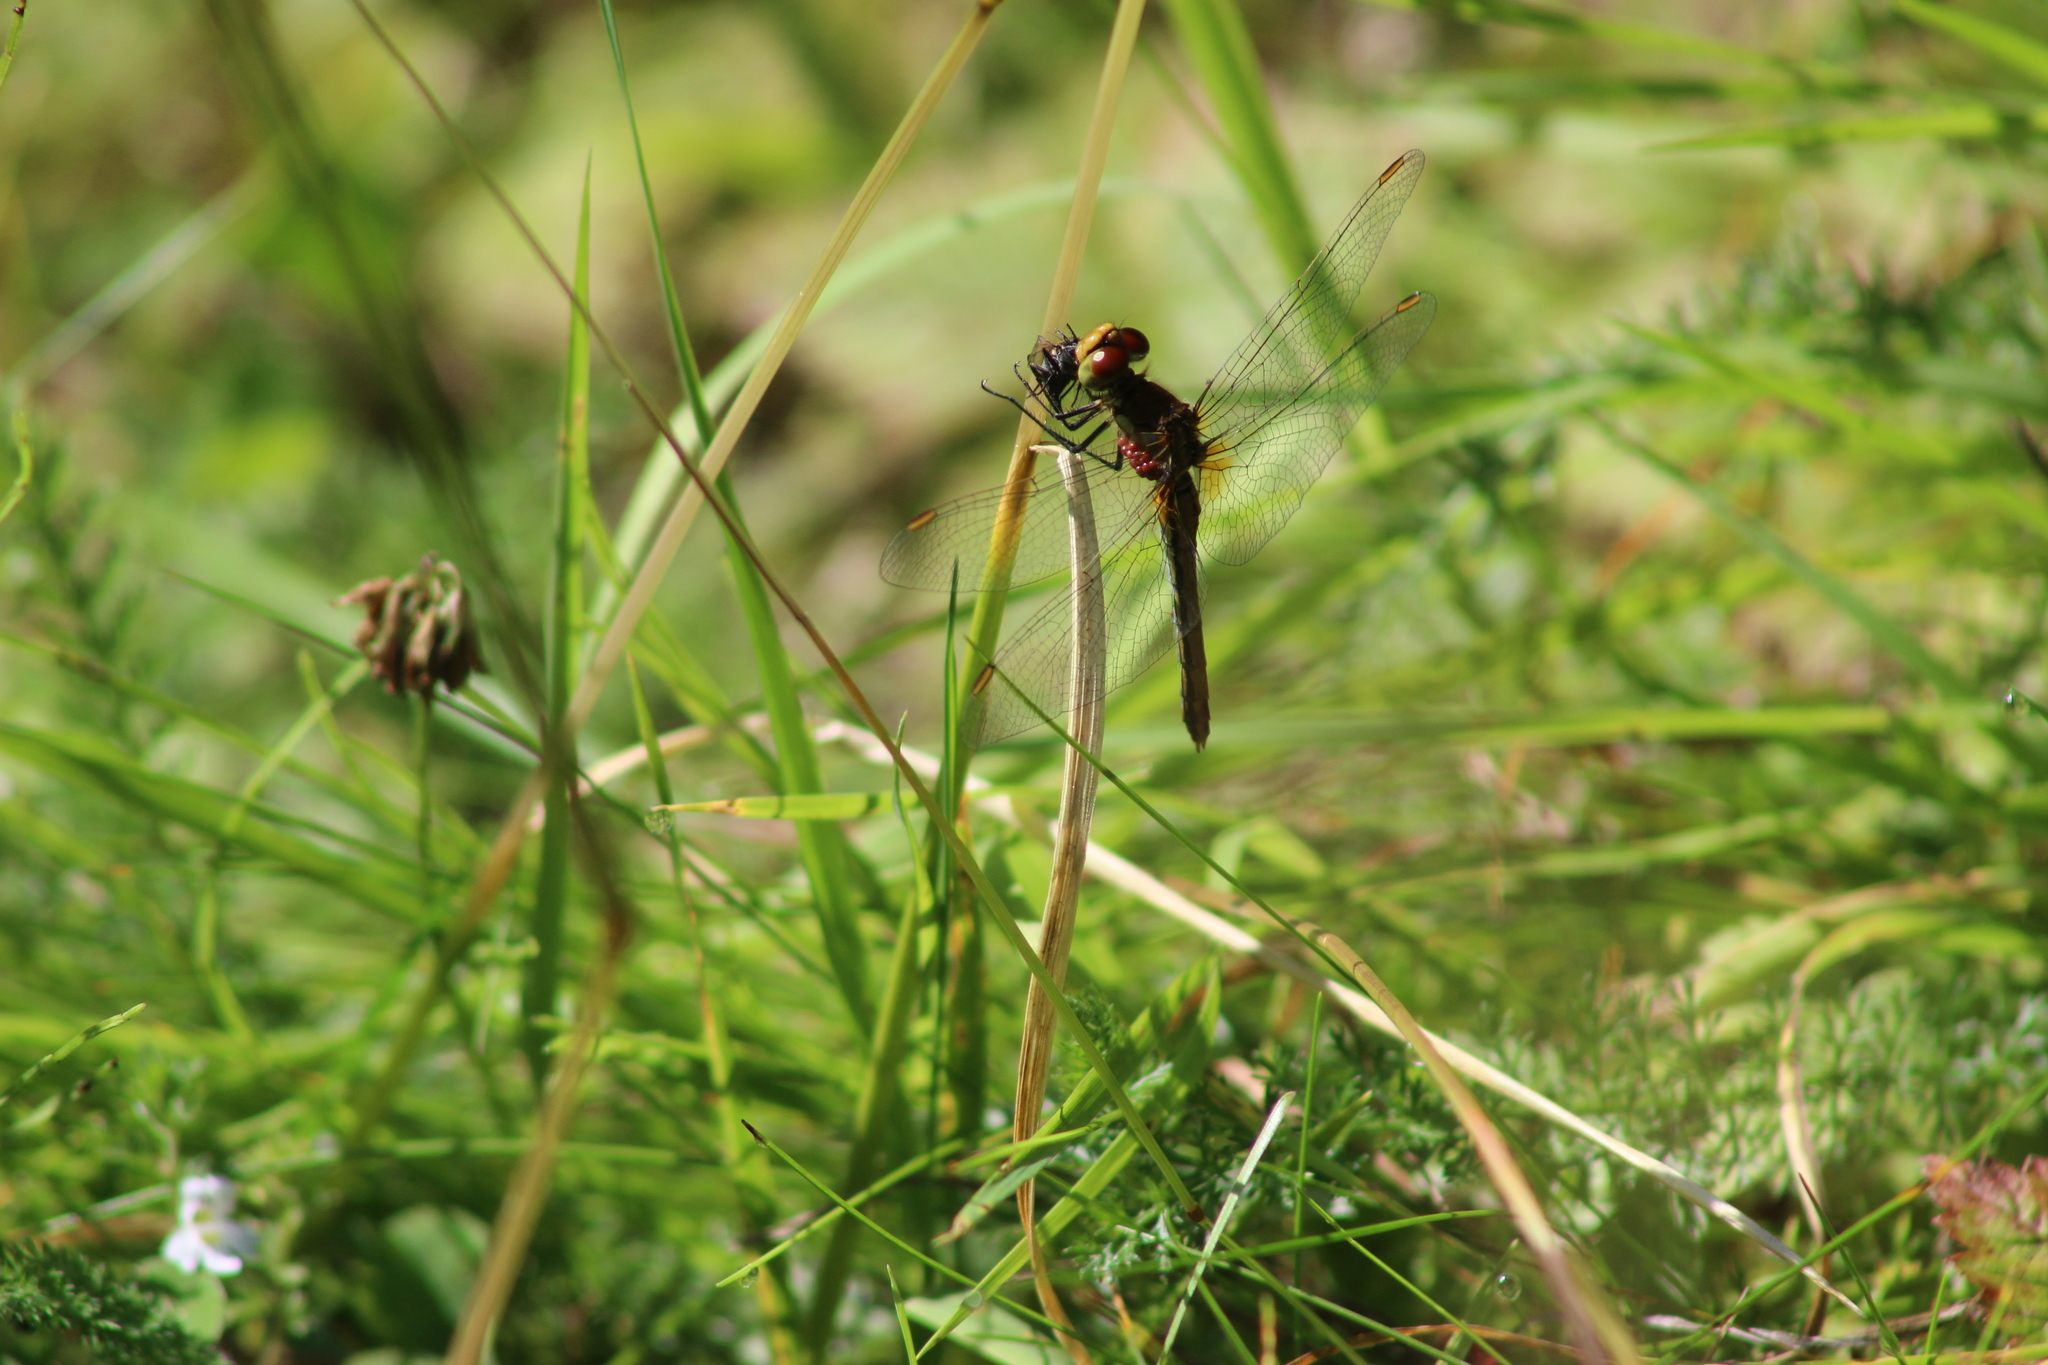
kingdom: Animalia
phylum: Arthropoda
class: Insecta
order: Odonata
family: Libellulidae
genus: Sympetrum
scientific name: Sympetrum flaveolum
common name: Yellow-winged darter
